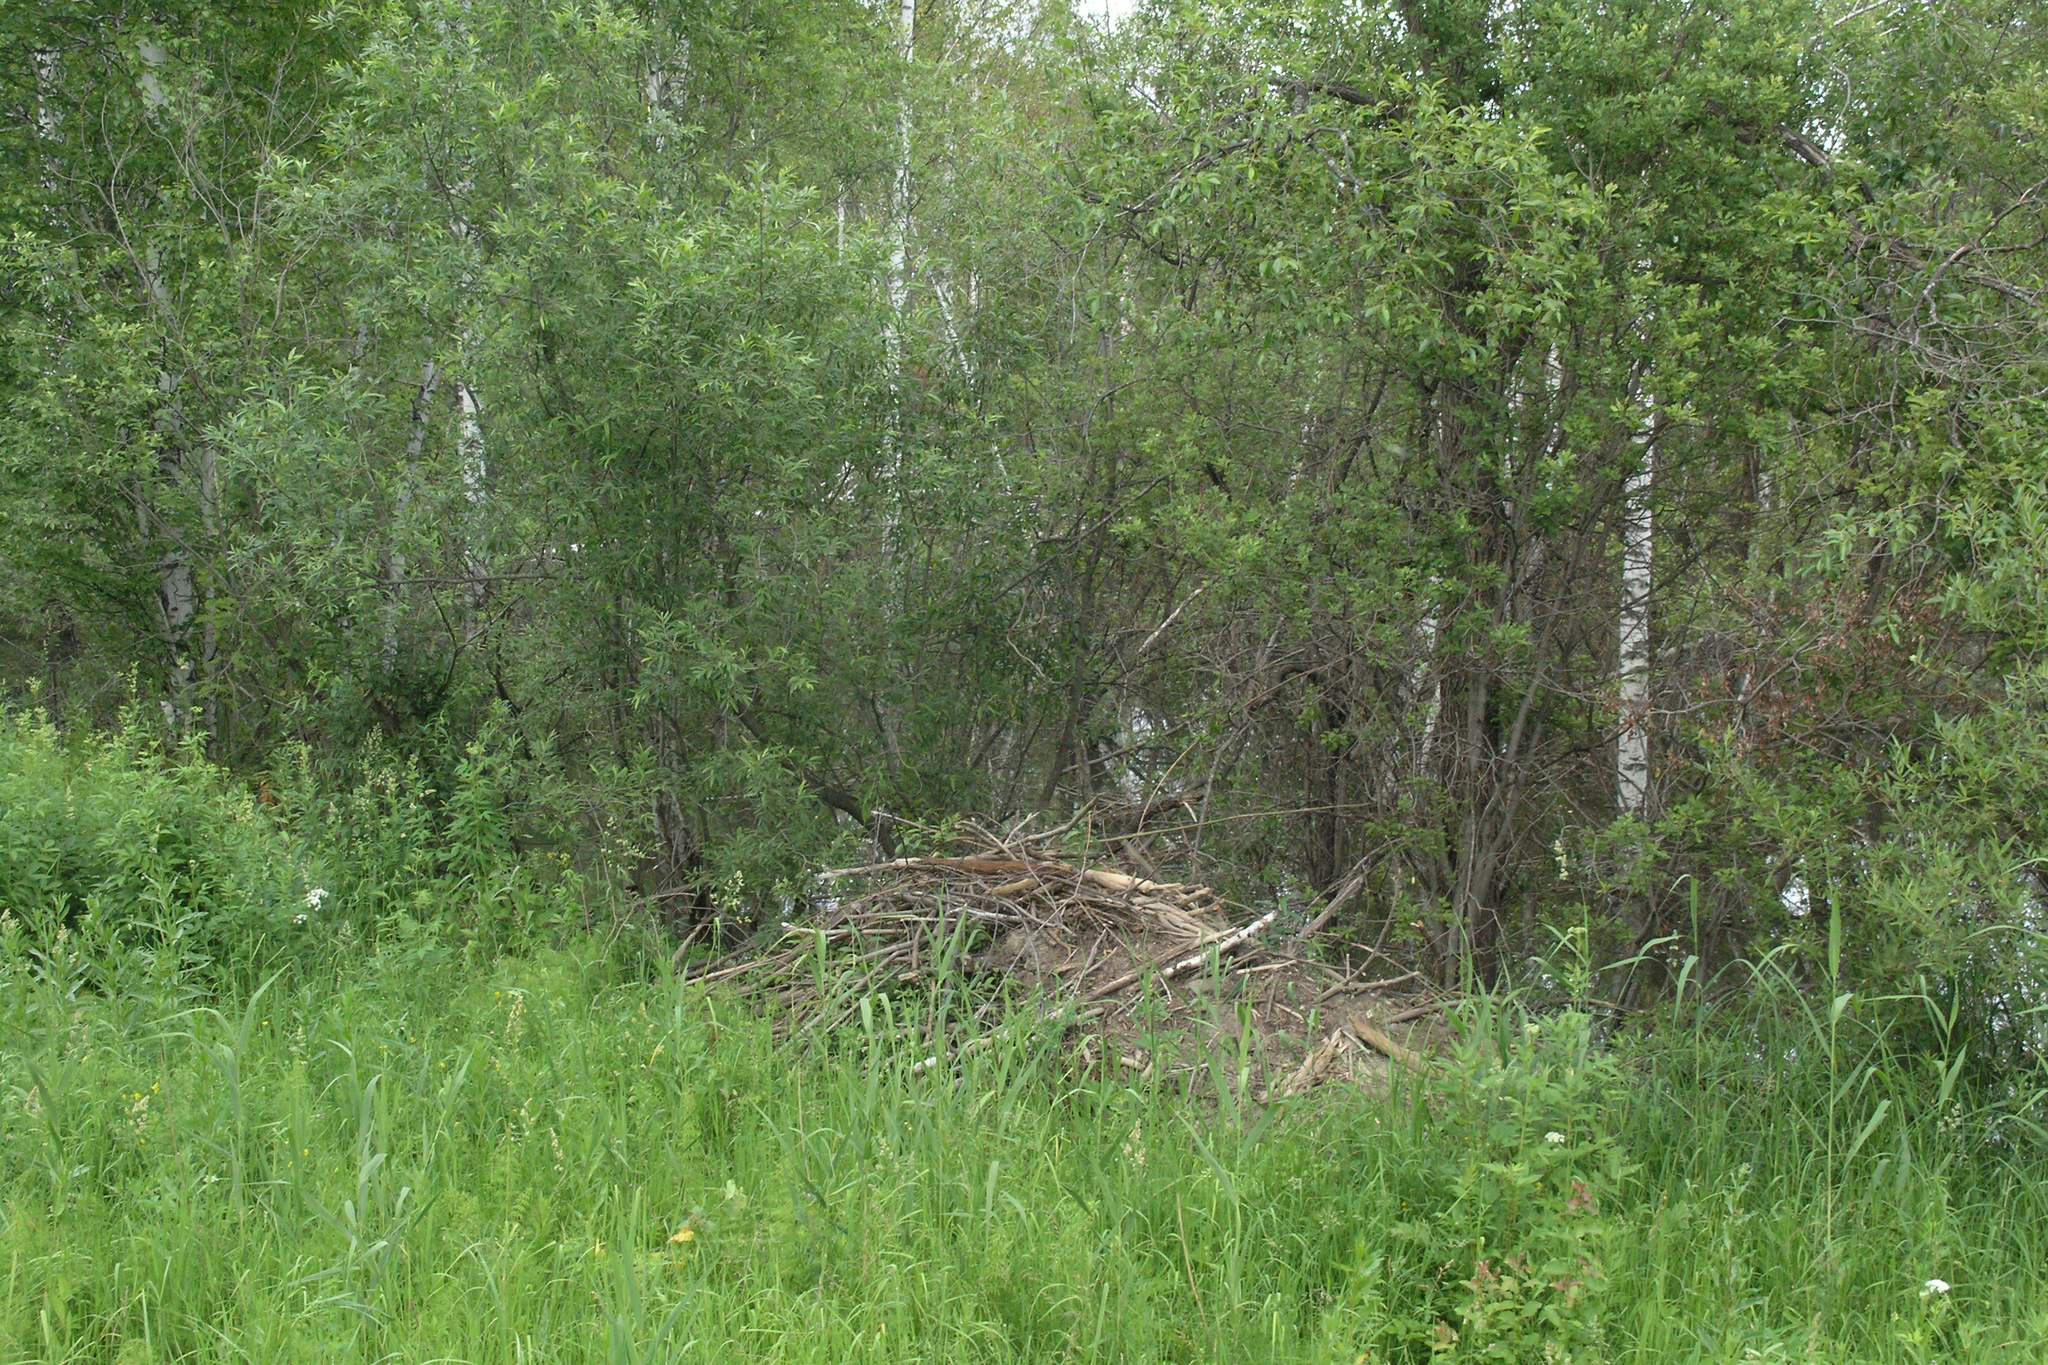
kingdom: Animalia
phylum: Chordata
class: Mammalia
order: Rodentia
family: Castoridae
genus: Castor
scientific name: Castor fiber
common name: Eurasian beaver
